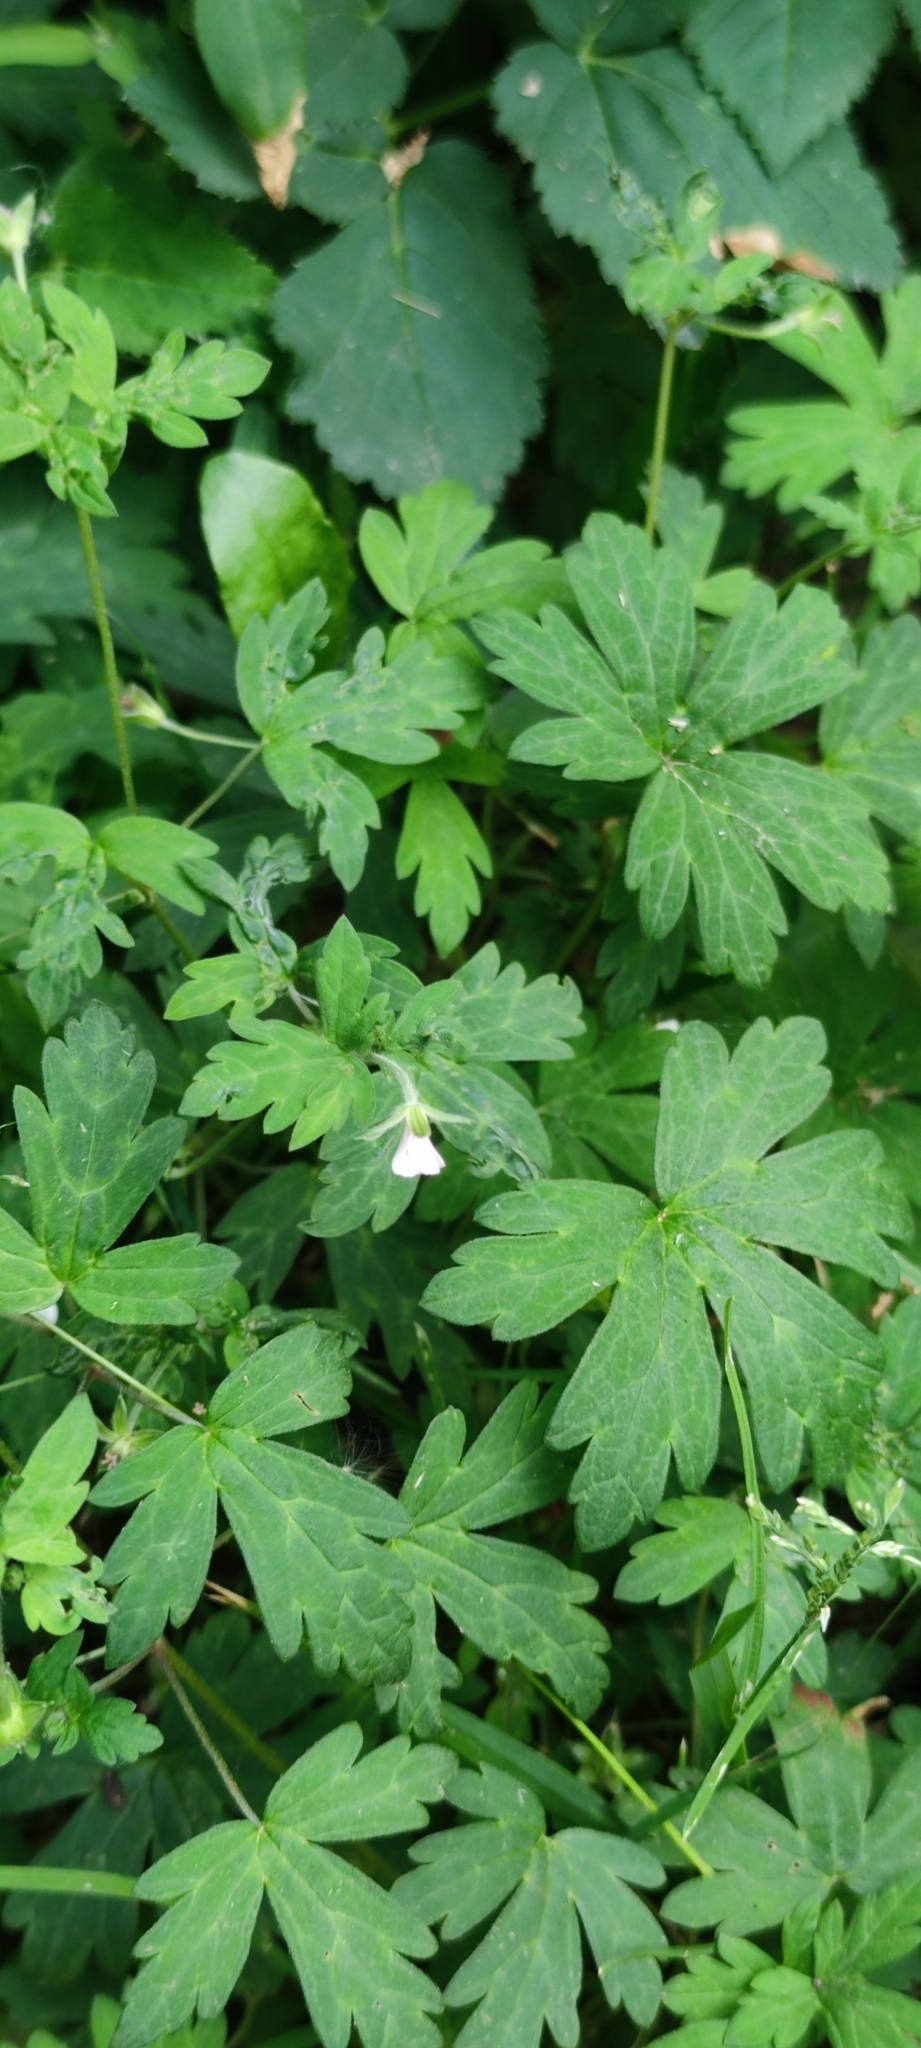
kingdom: Plantae
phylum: Tracheophyta
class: Magnoliopsida
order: Geraniales
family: Geraniaceae
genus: Geranium
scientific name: Geranium sibiricum
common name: Siberian crane's-bill
